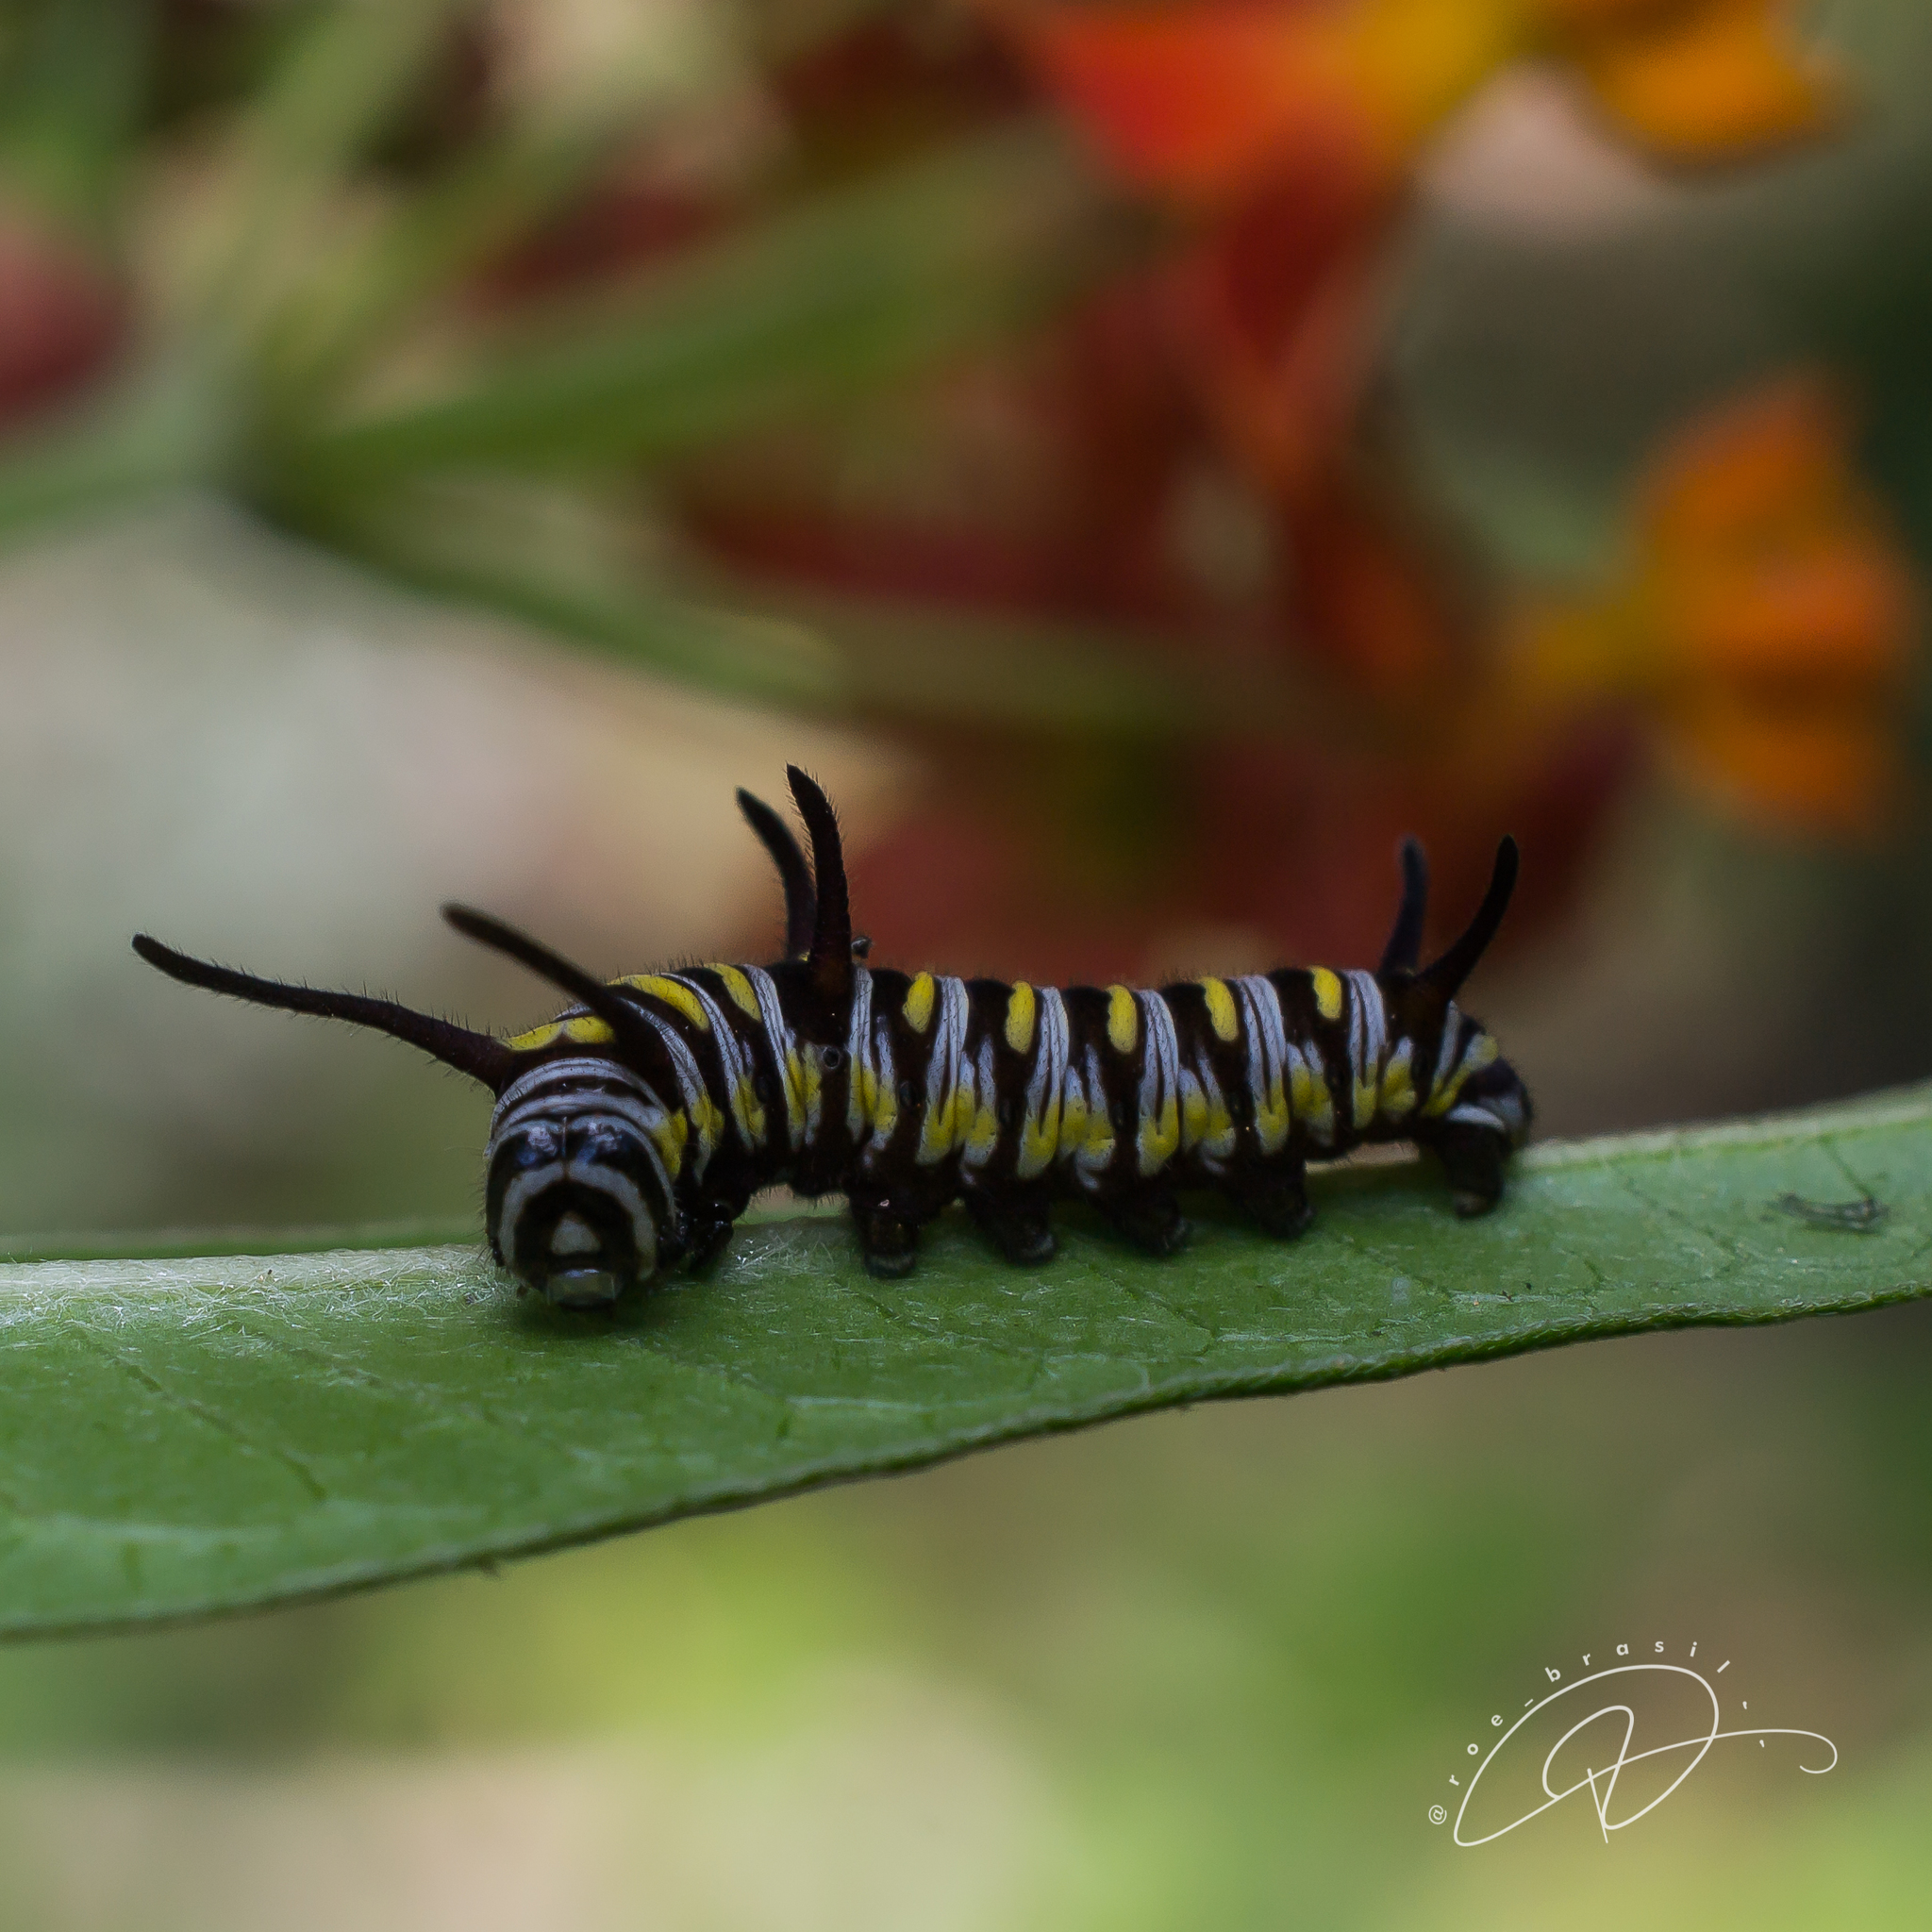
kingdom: Animalia
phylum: Arthropoda
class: Insecta
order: Lepidoptera
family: Nymphalidae
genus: Danaus
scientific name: Danaus gilippus
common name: Queen
